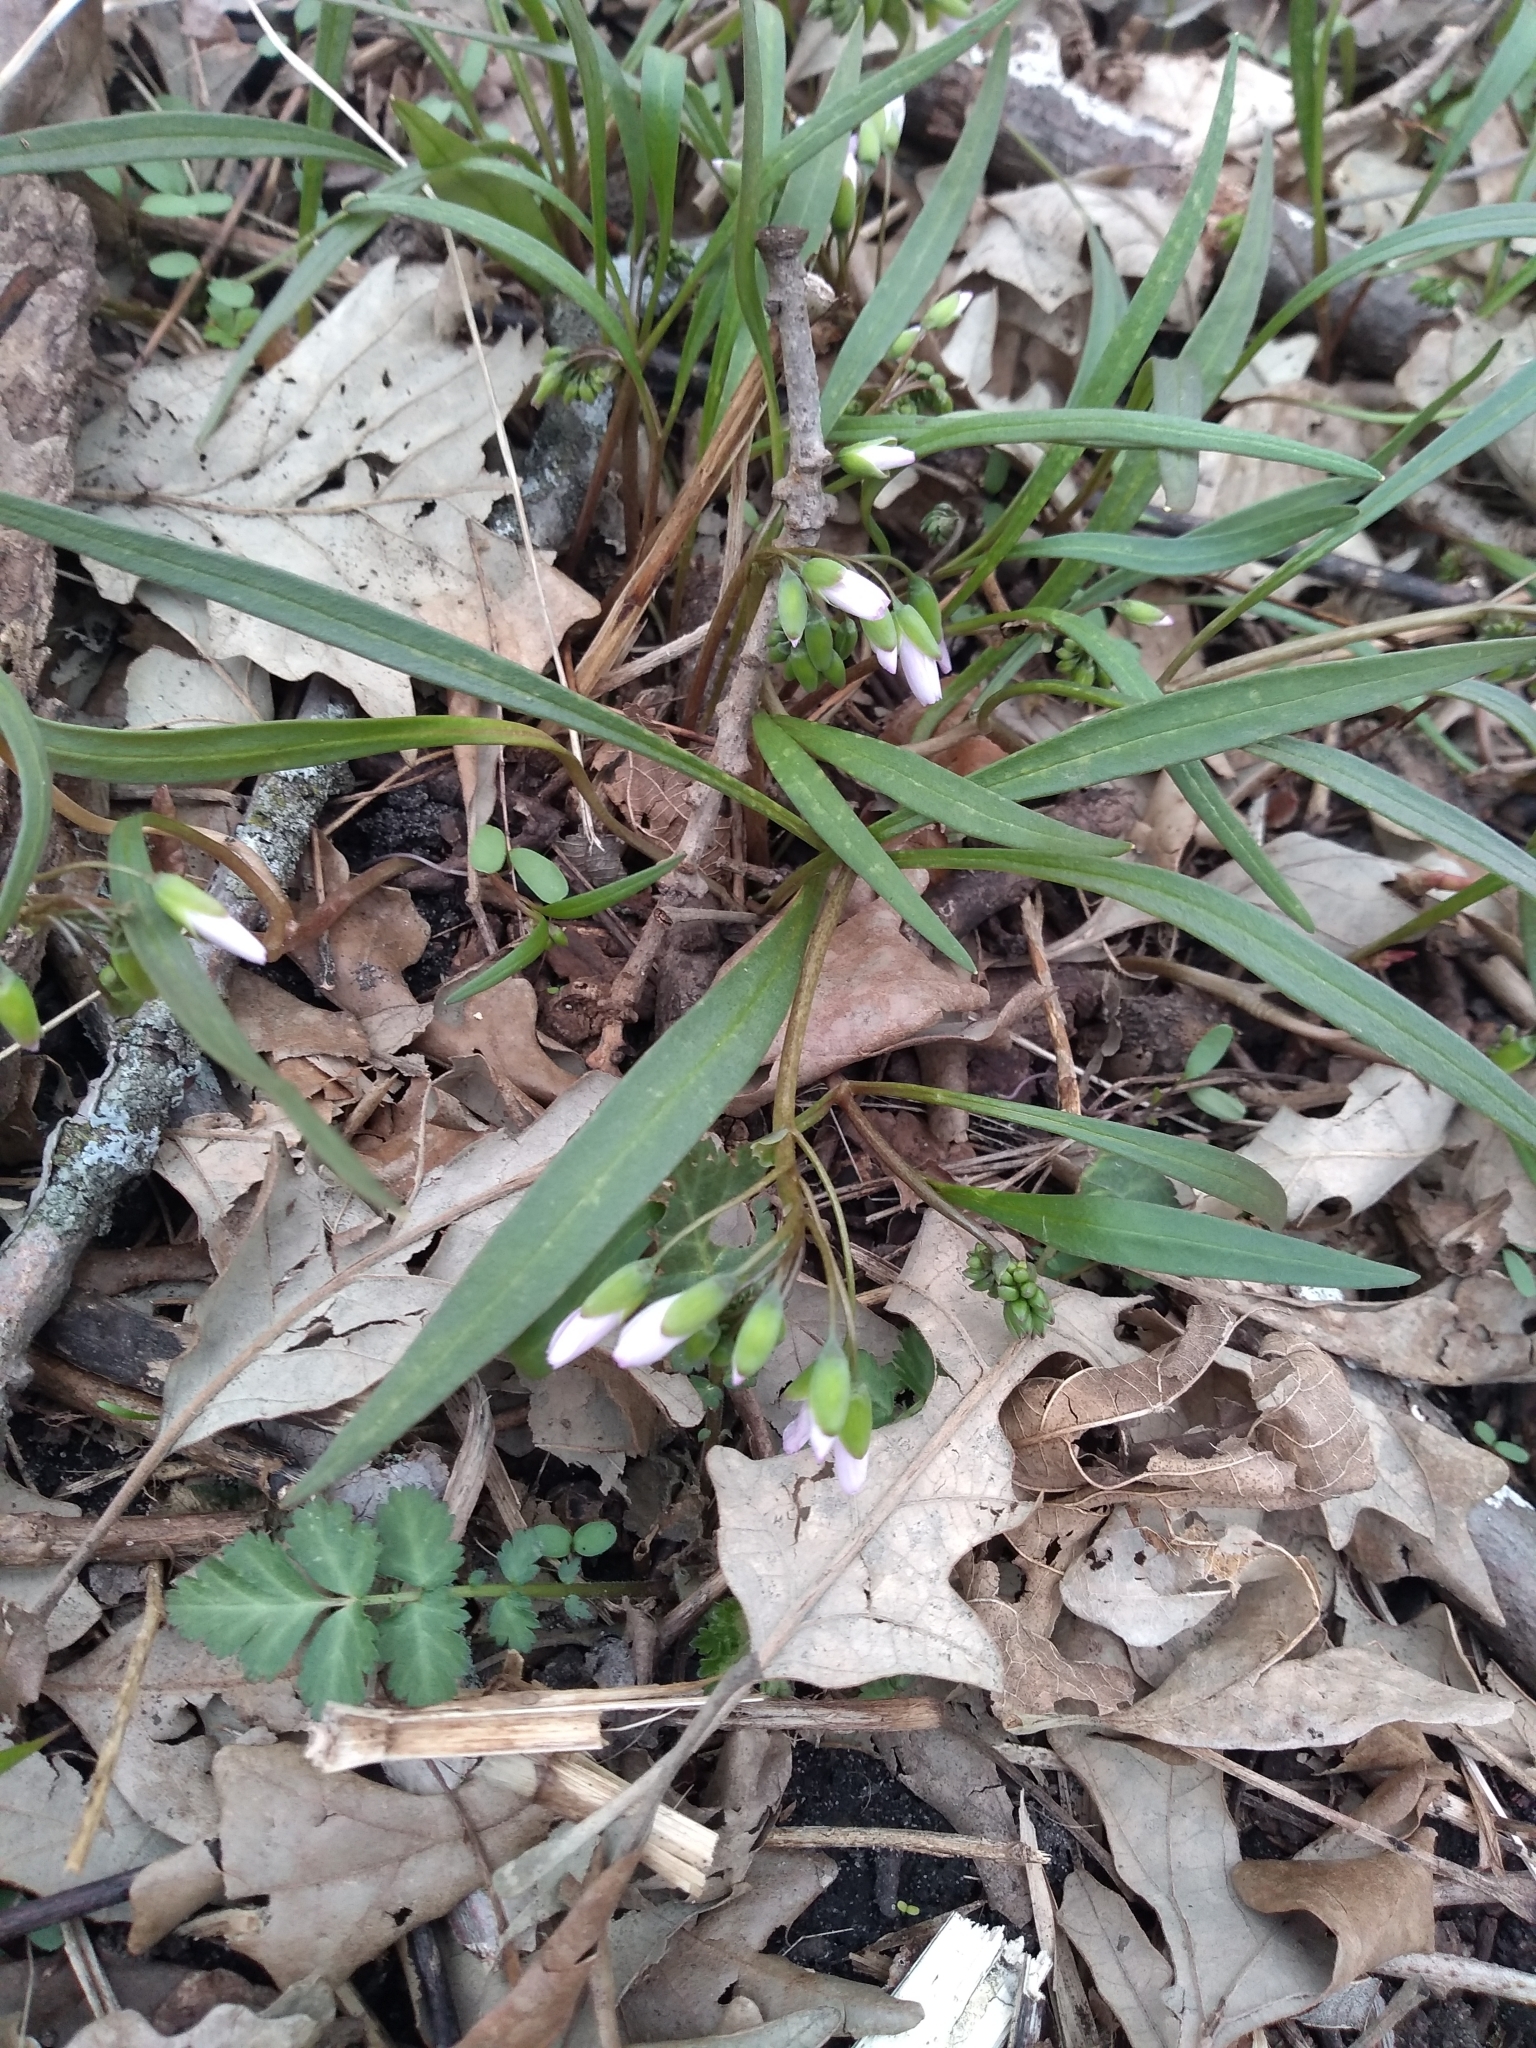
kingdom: Plantae
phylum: Tracheophyta
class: Magnoliopsida
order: Caryophyllales
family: Montiaceae
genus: Claytonia
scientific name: Claytonia virginica
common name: Virginia springbeauty
